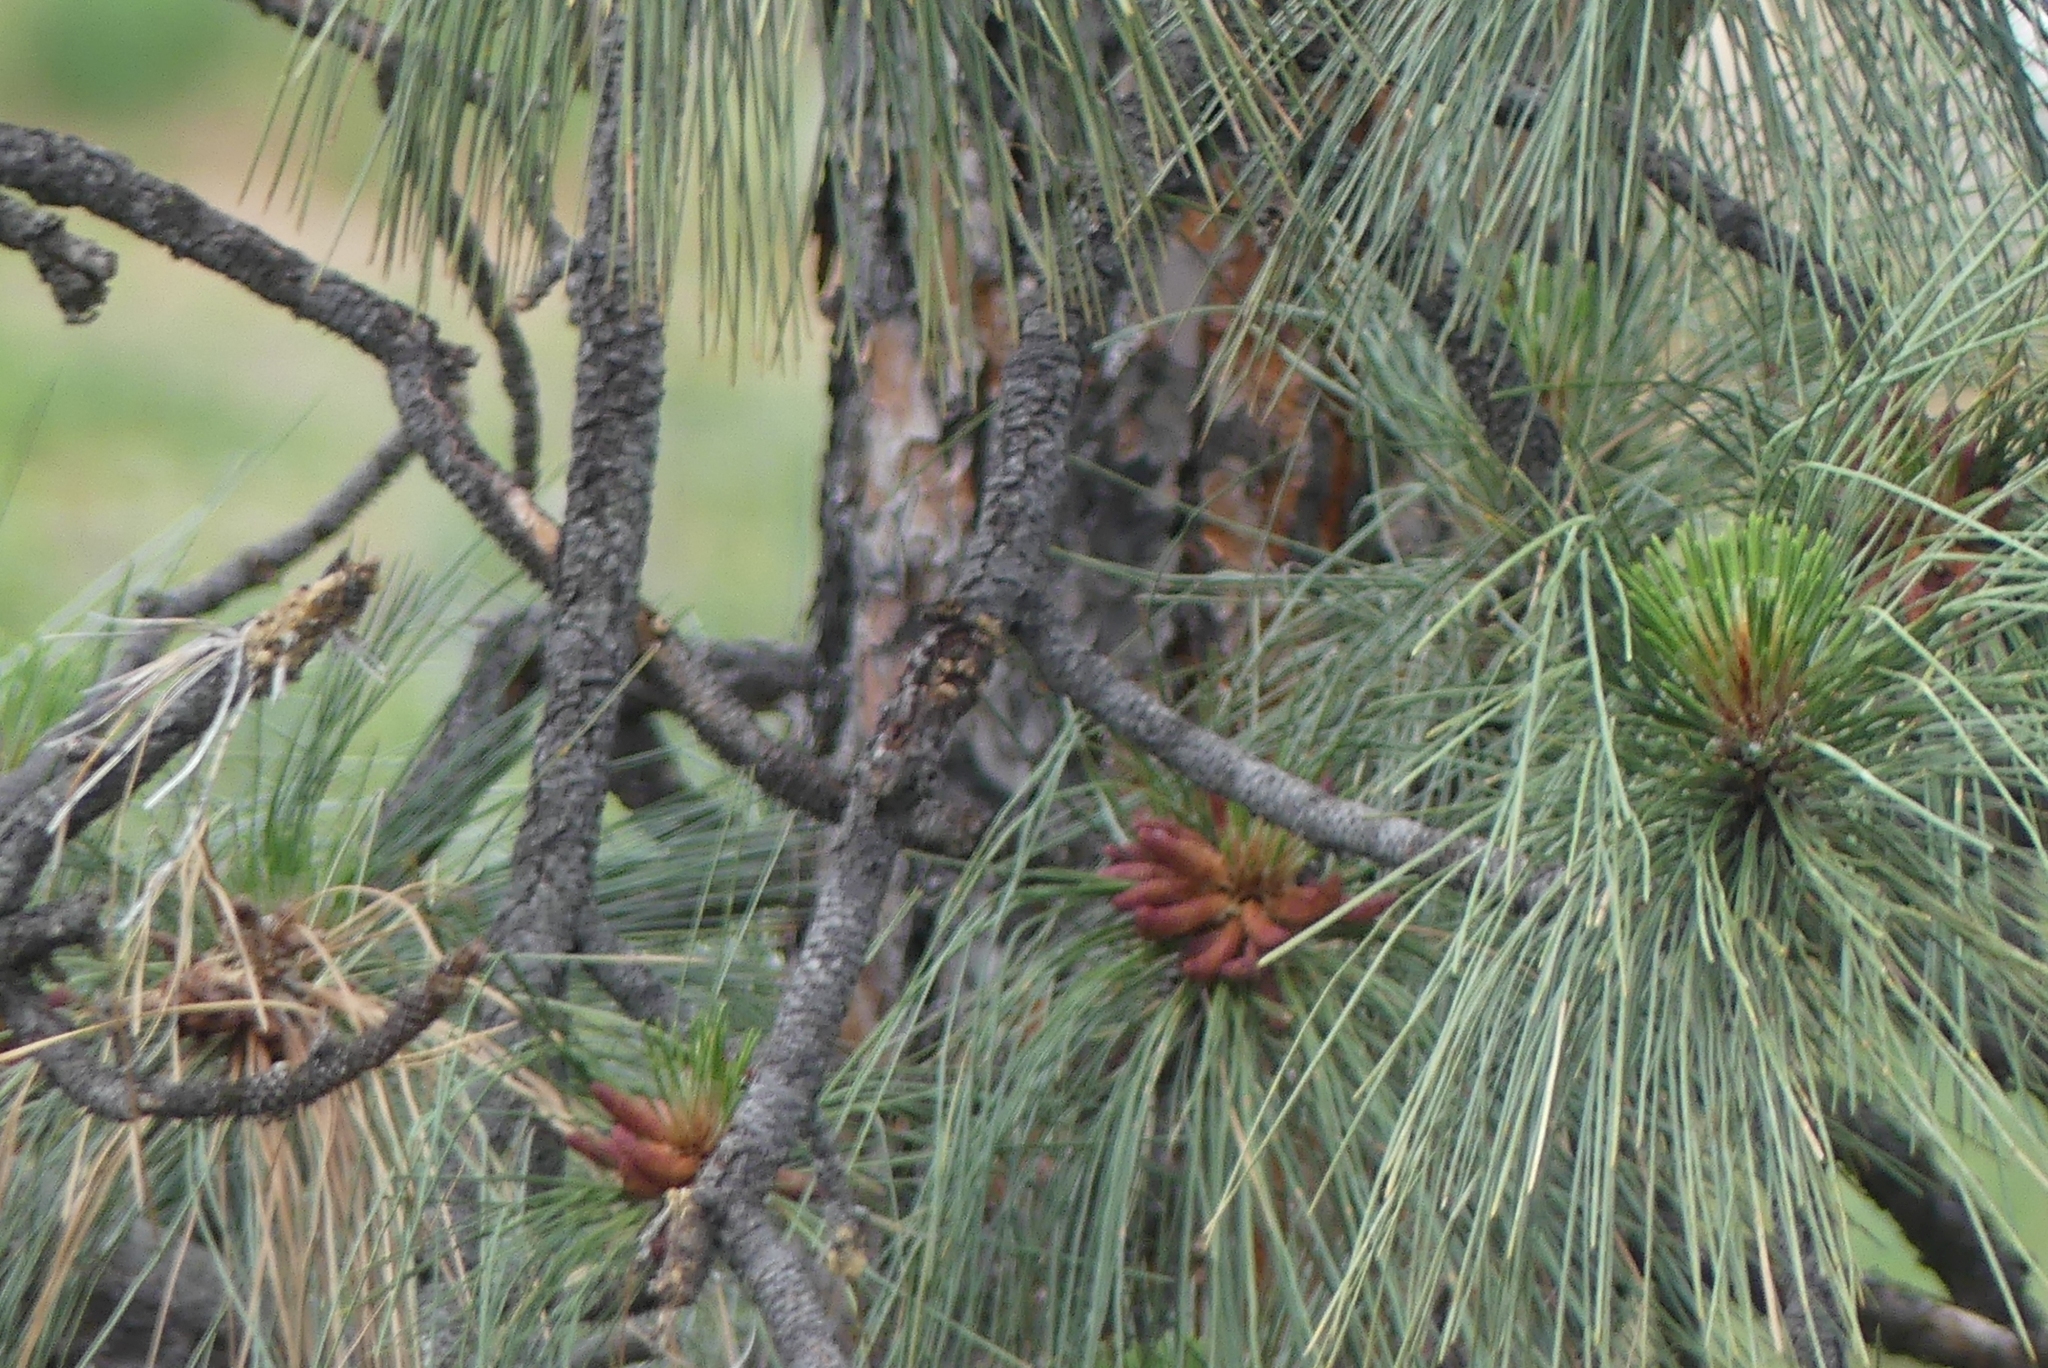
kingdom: Plantae
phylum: Tracheophyta
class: Pinopsida
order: Pinales
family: Pinaceae
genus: Pinus
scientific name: Pinus ponderosa
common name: Western yellow-pine
